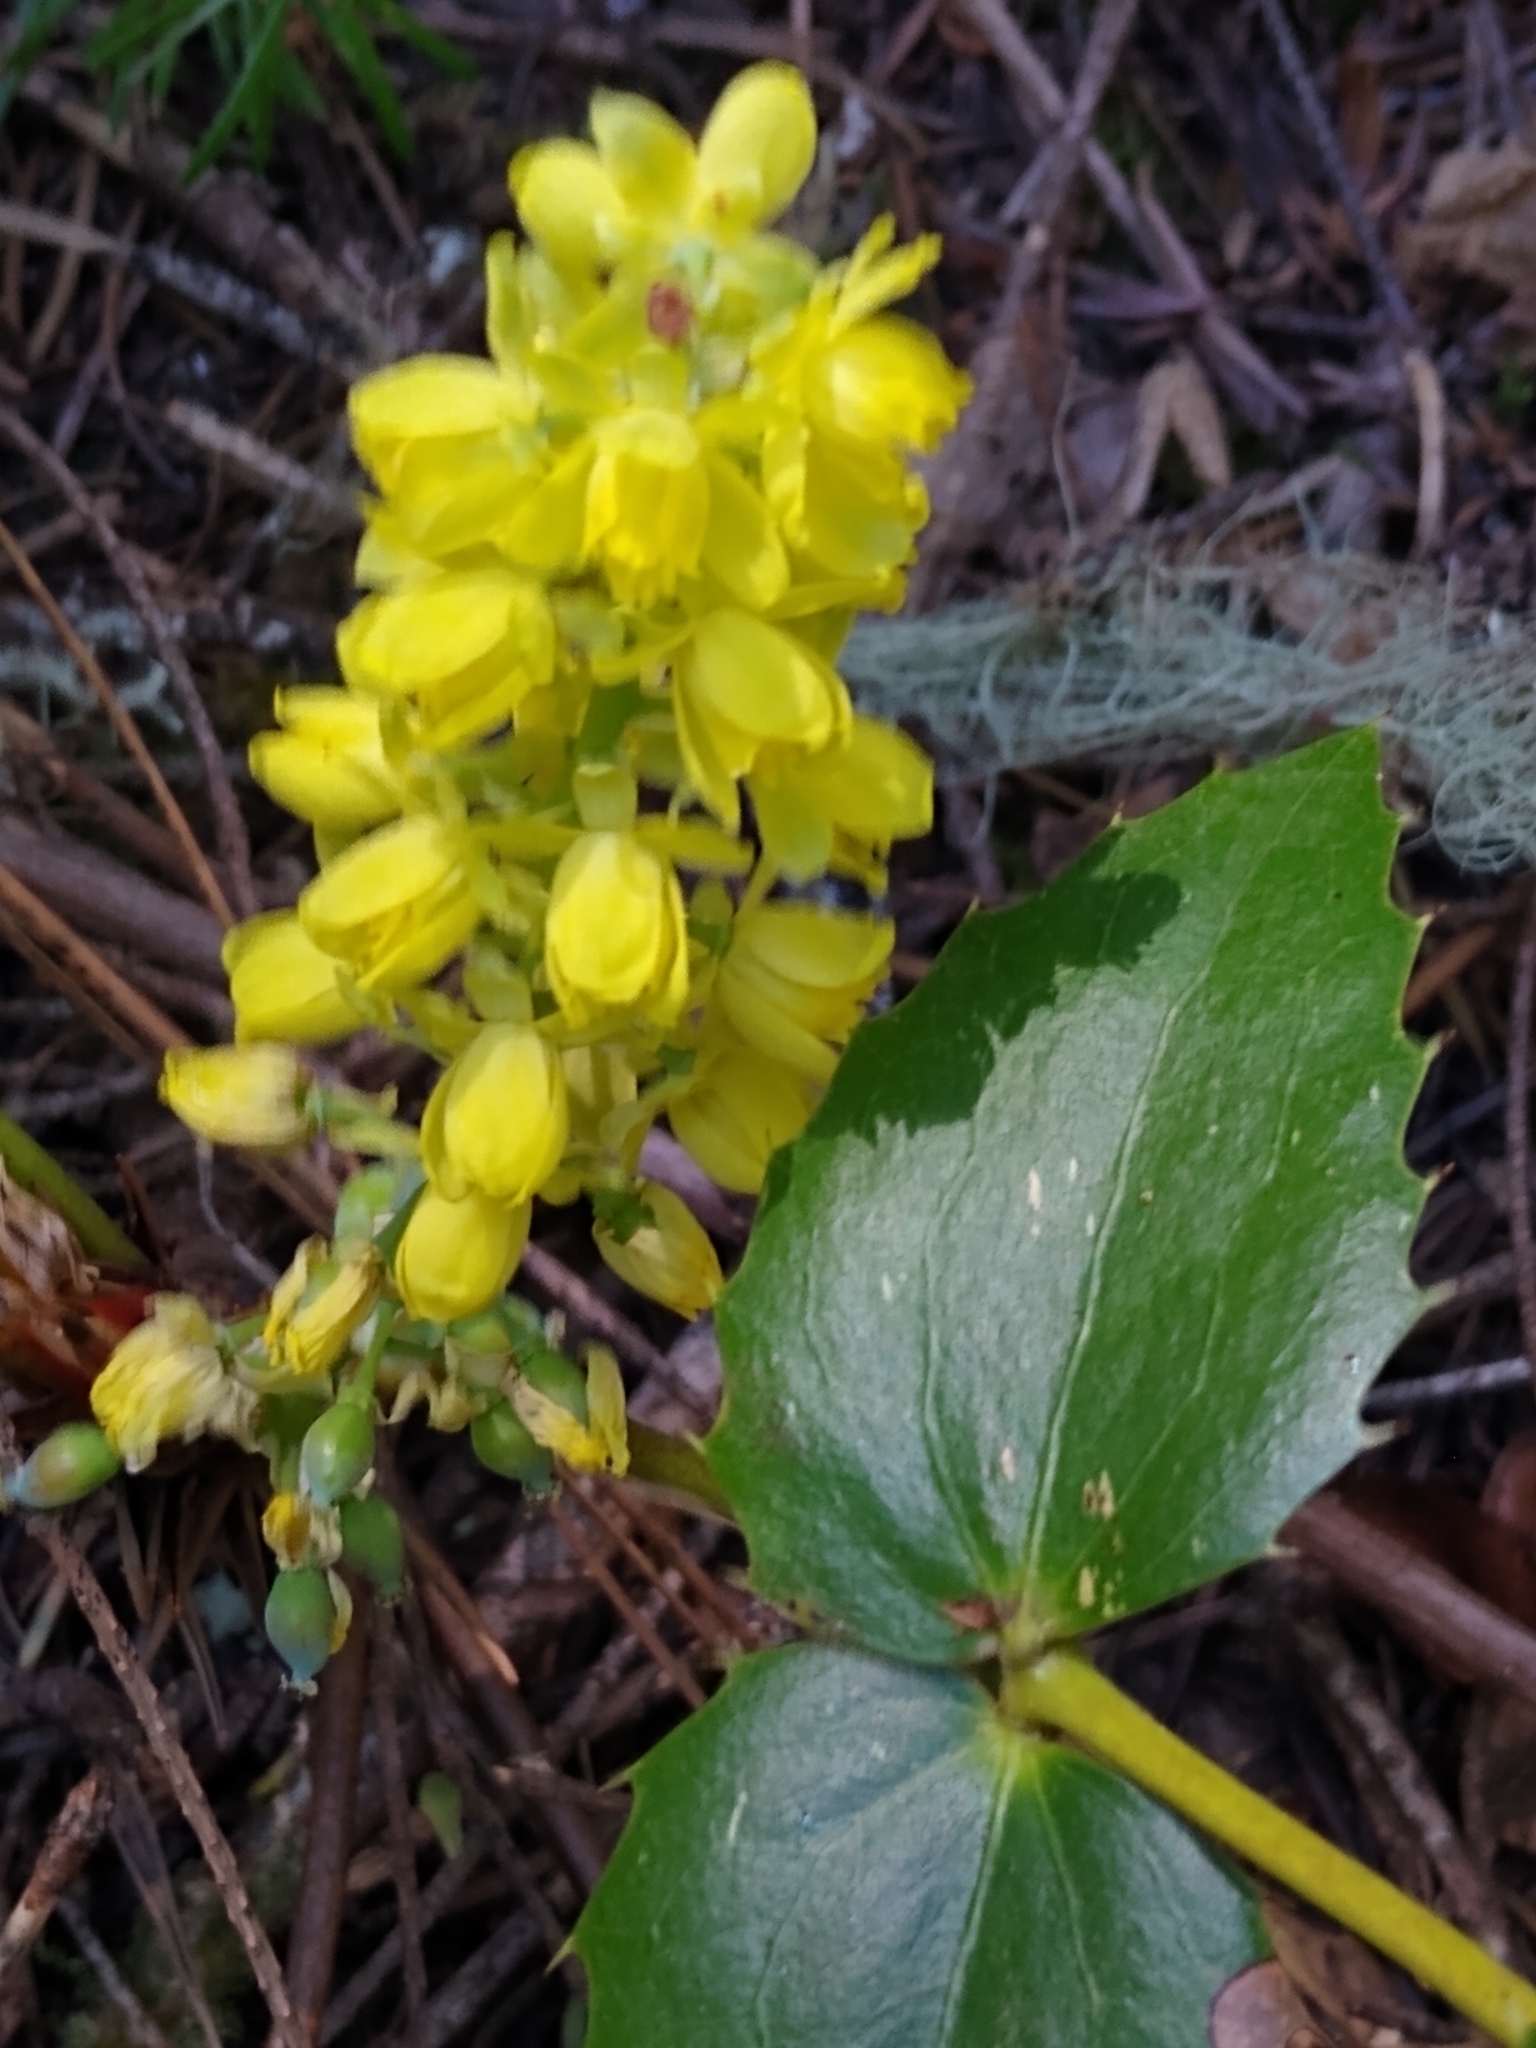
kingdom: Plantae
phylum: Tracheophyta
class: Magnoliopsida
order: Ranunculales
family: Berberidaceae
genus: Mahonia
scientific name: Mahonia nervosa
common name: Cascade oregon-grape
